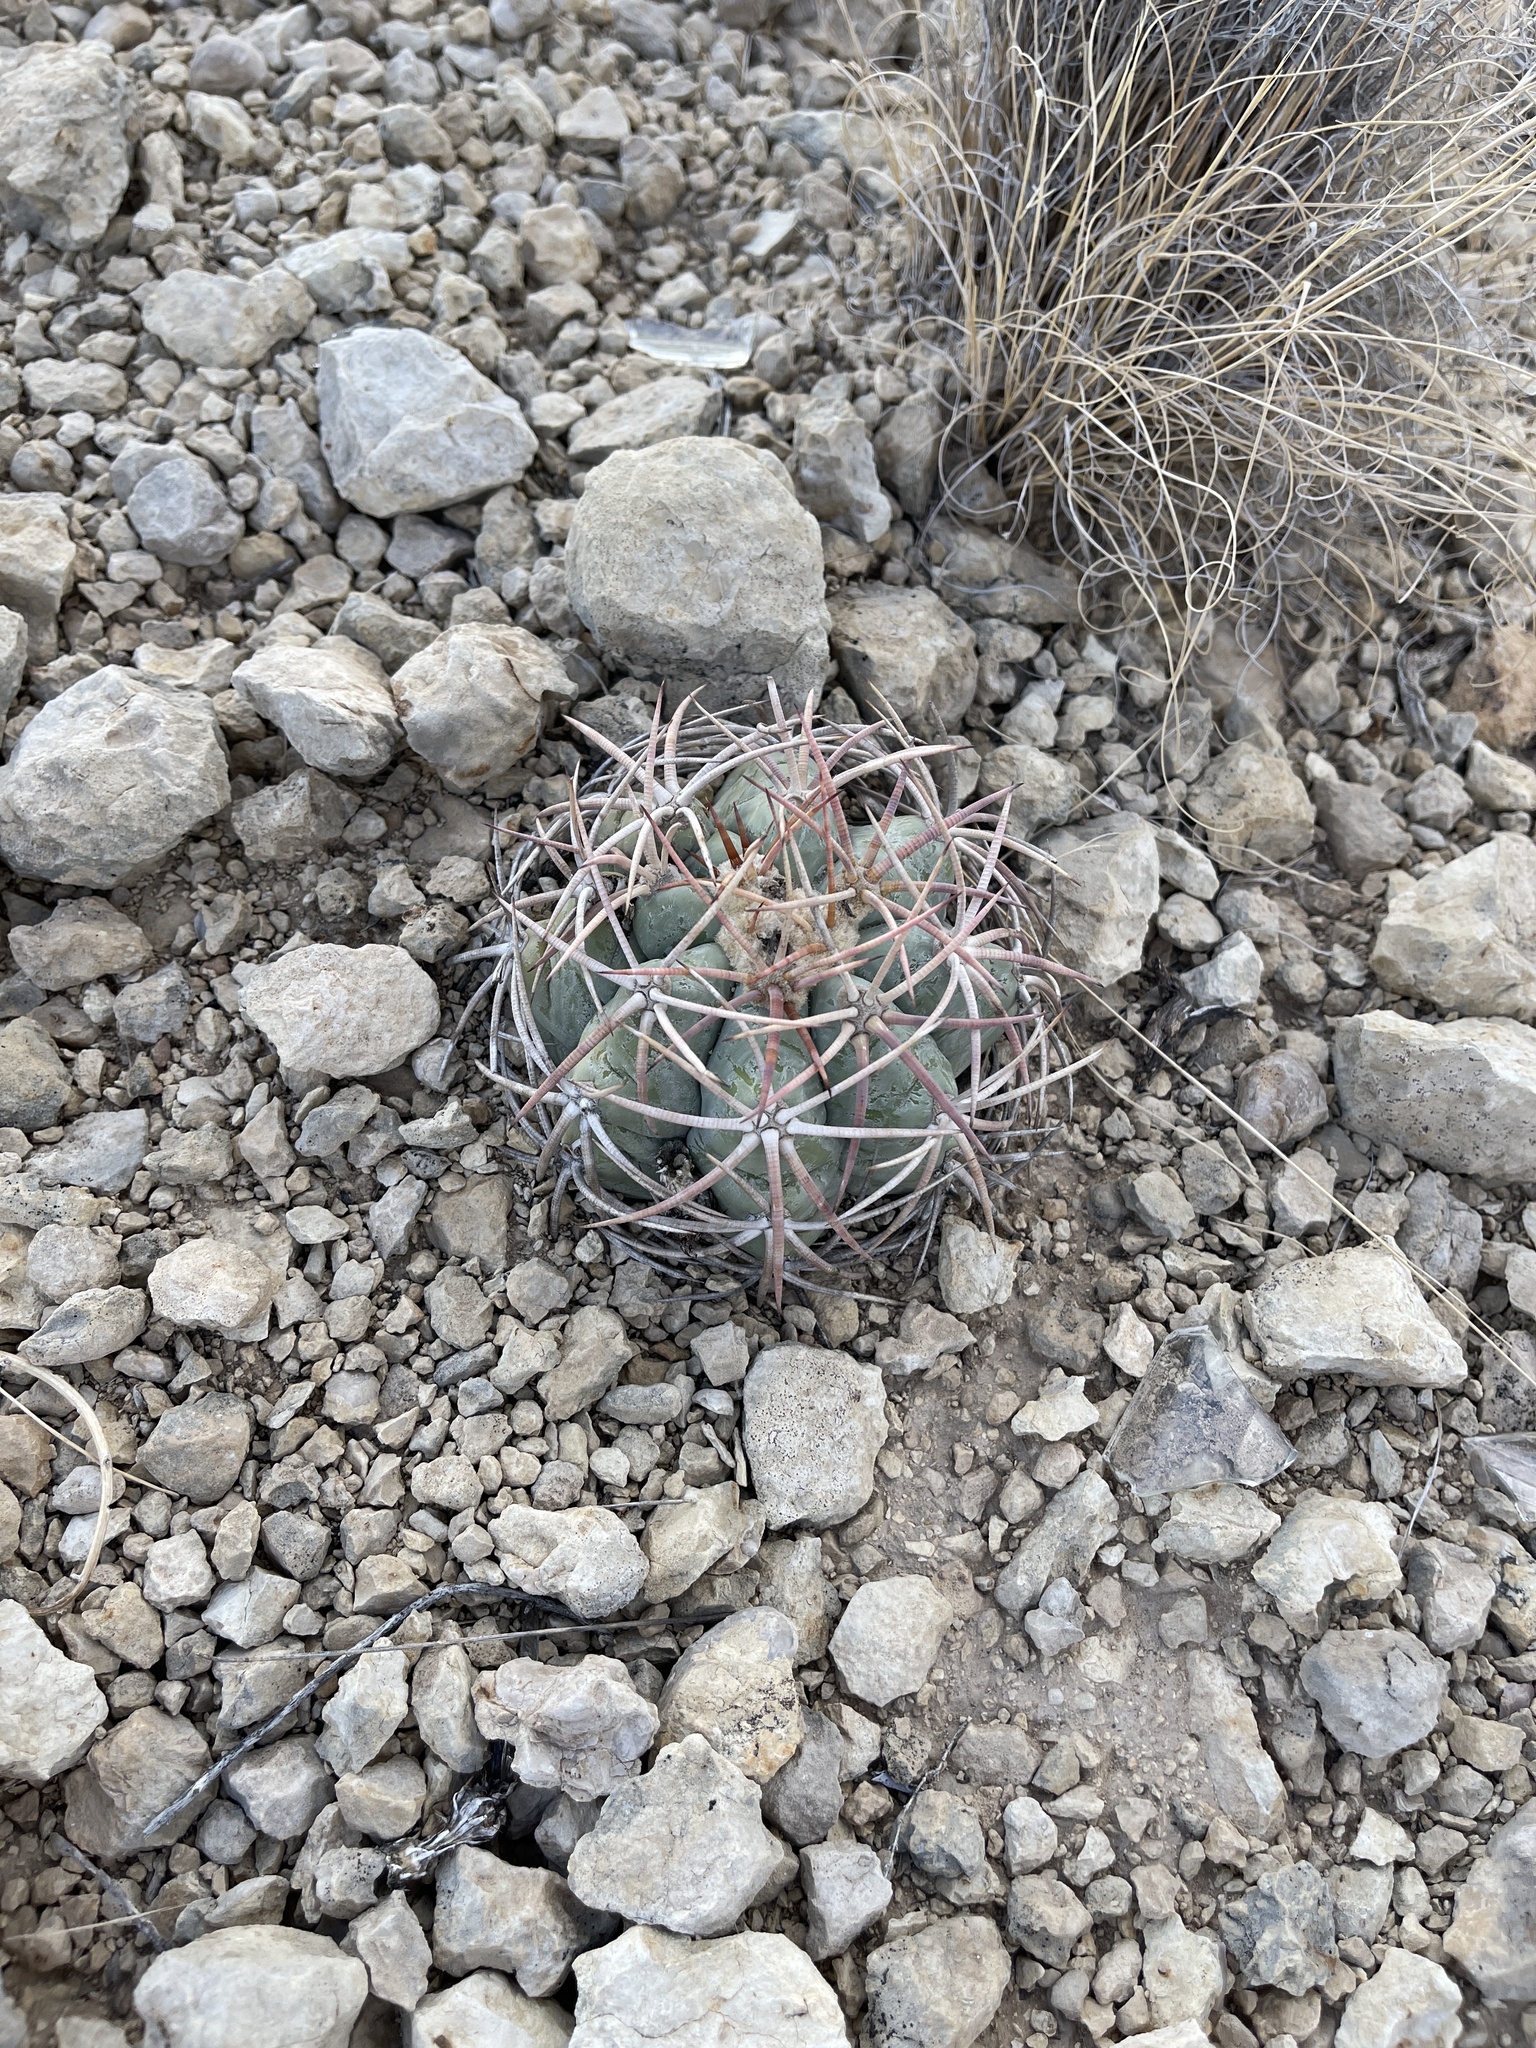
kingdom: Plantae
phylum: Tracheophyta
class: Magnoliopsida
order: Caryophyllales
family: Cactaceae
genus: Echinocactus
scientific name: Echinocactus horizonthalonius
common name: Devilshead
